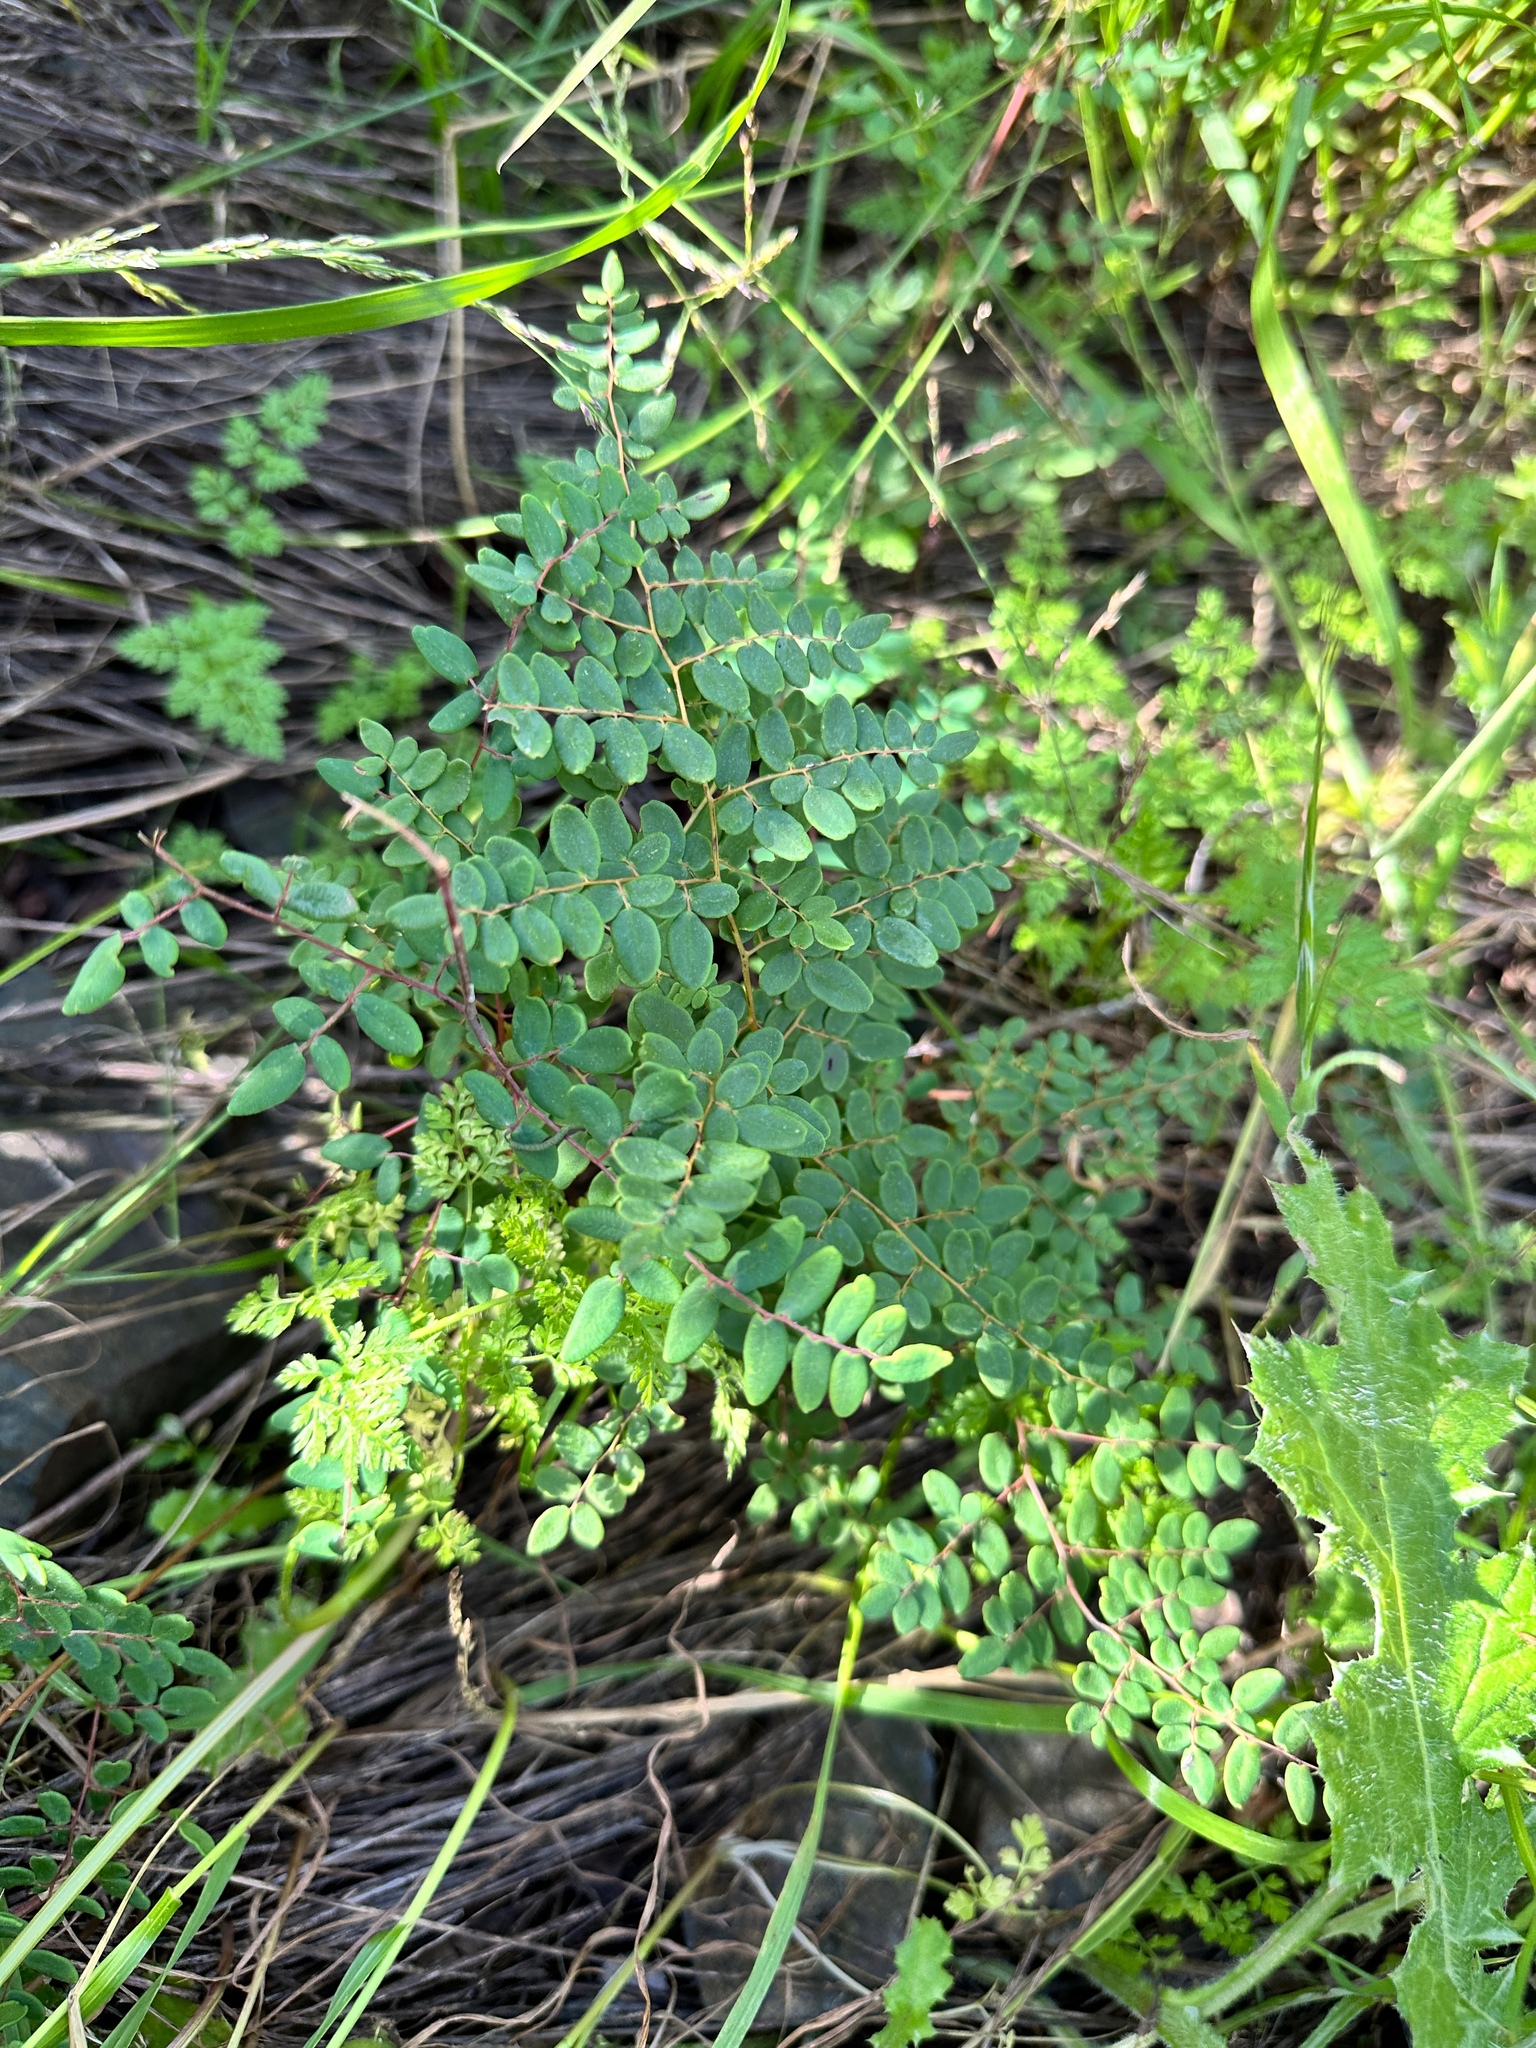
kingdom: Plantae
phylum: Tracheophyta
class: Polypodiopsida
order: Polypodiales
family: Pteridaceae
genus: Pellaea
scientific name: Pellaea andromedifolia
